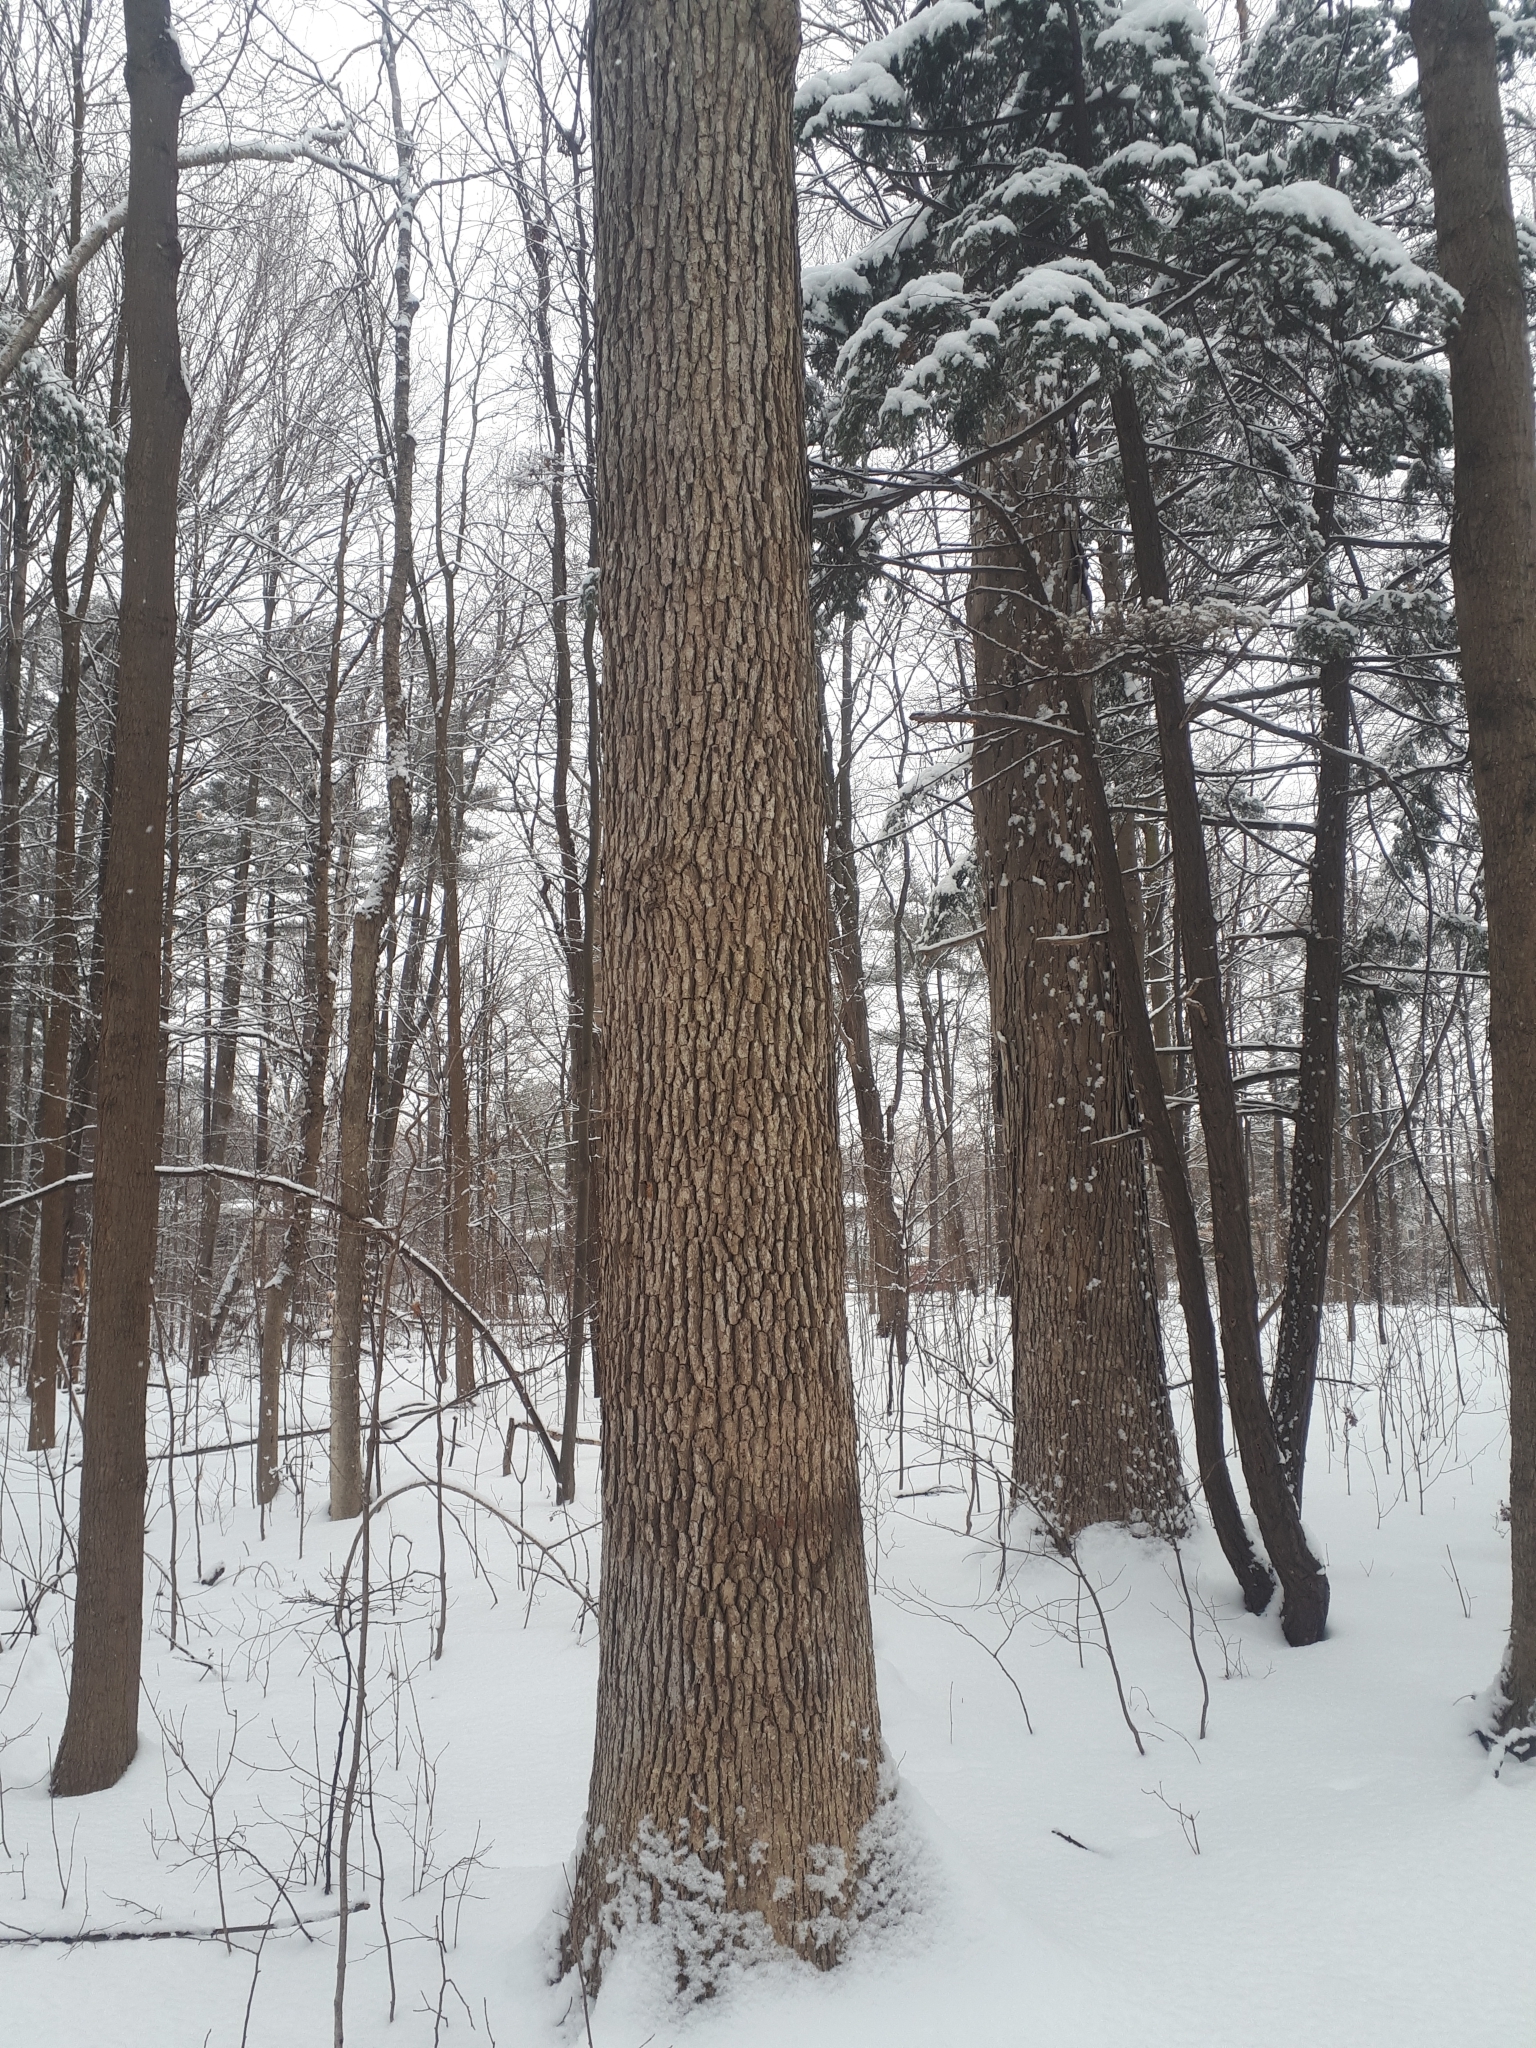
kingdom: Plantae
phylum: Tracheophyta
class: Magnoliopsida
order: Fagales
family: Fagaceae
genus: Quercus
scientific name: Quercus alba
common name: White oak
